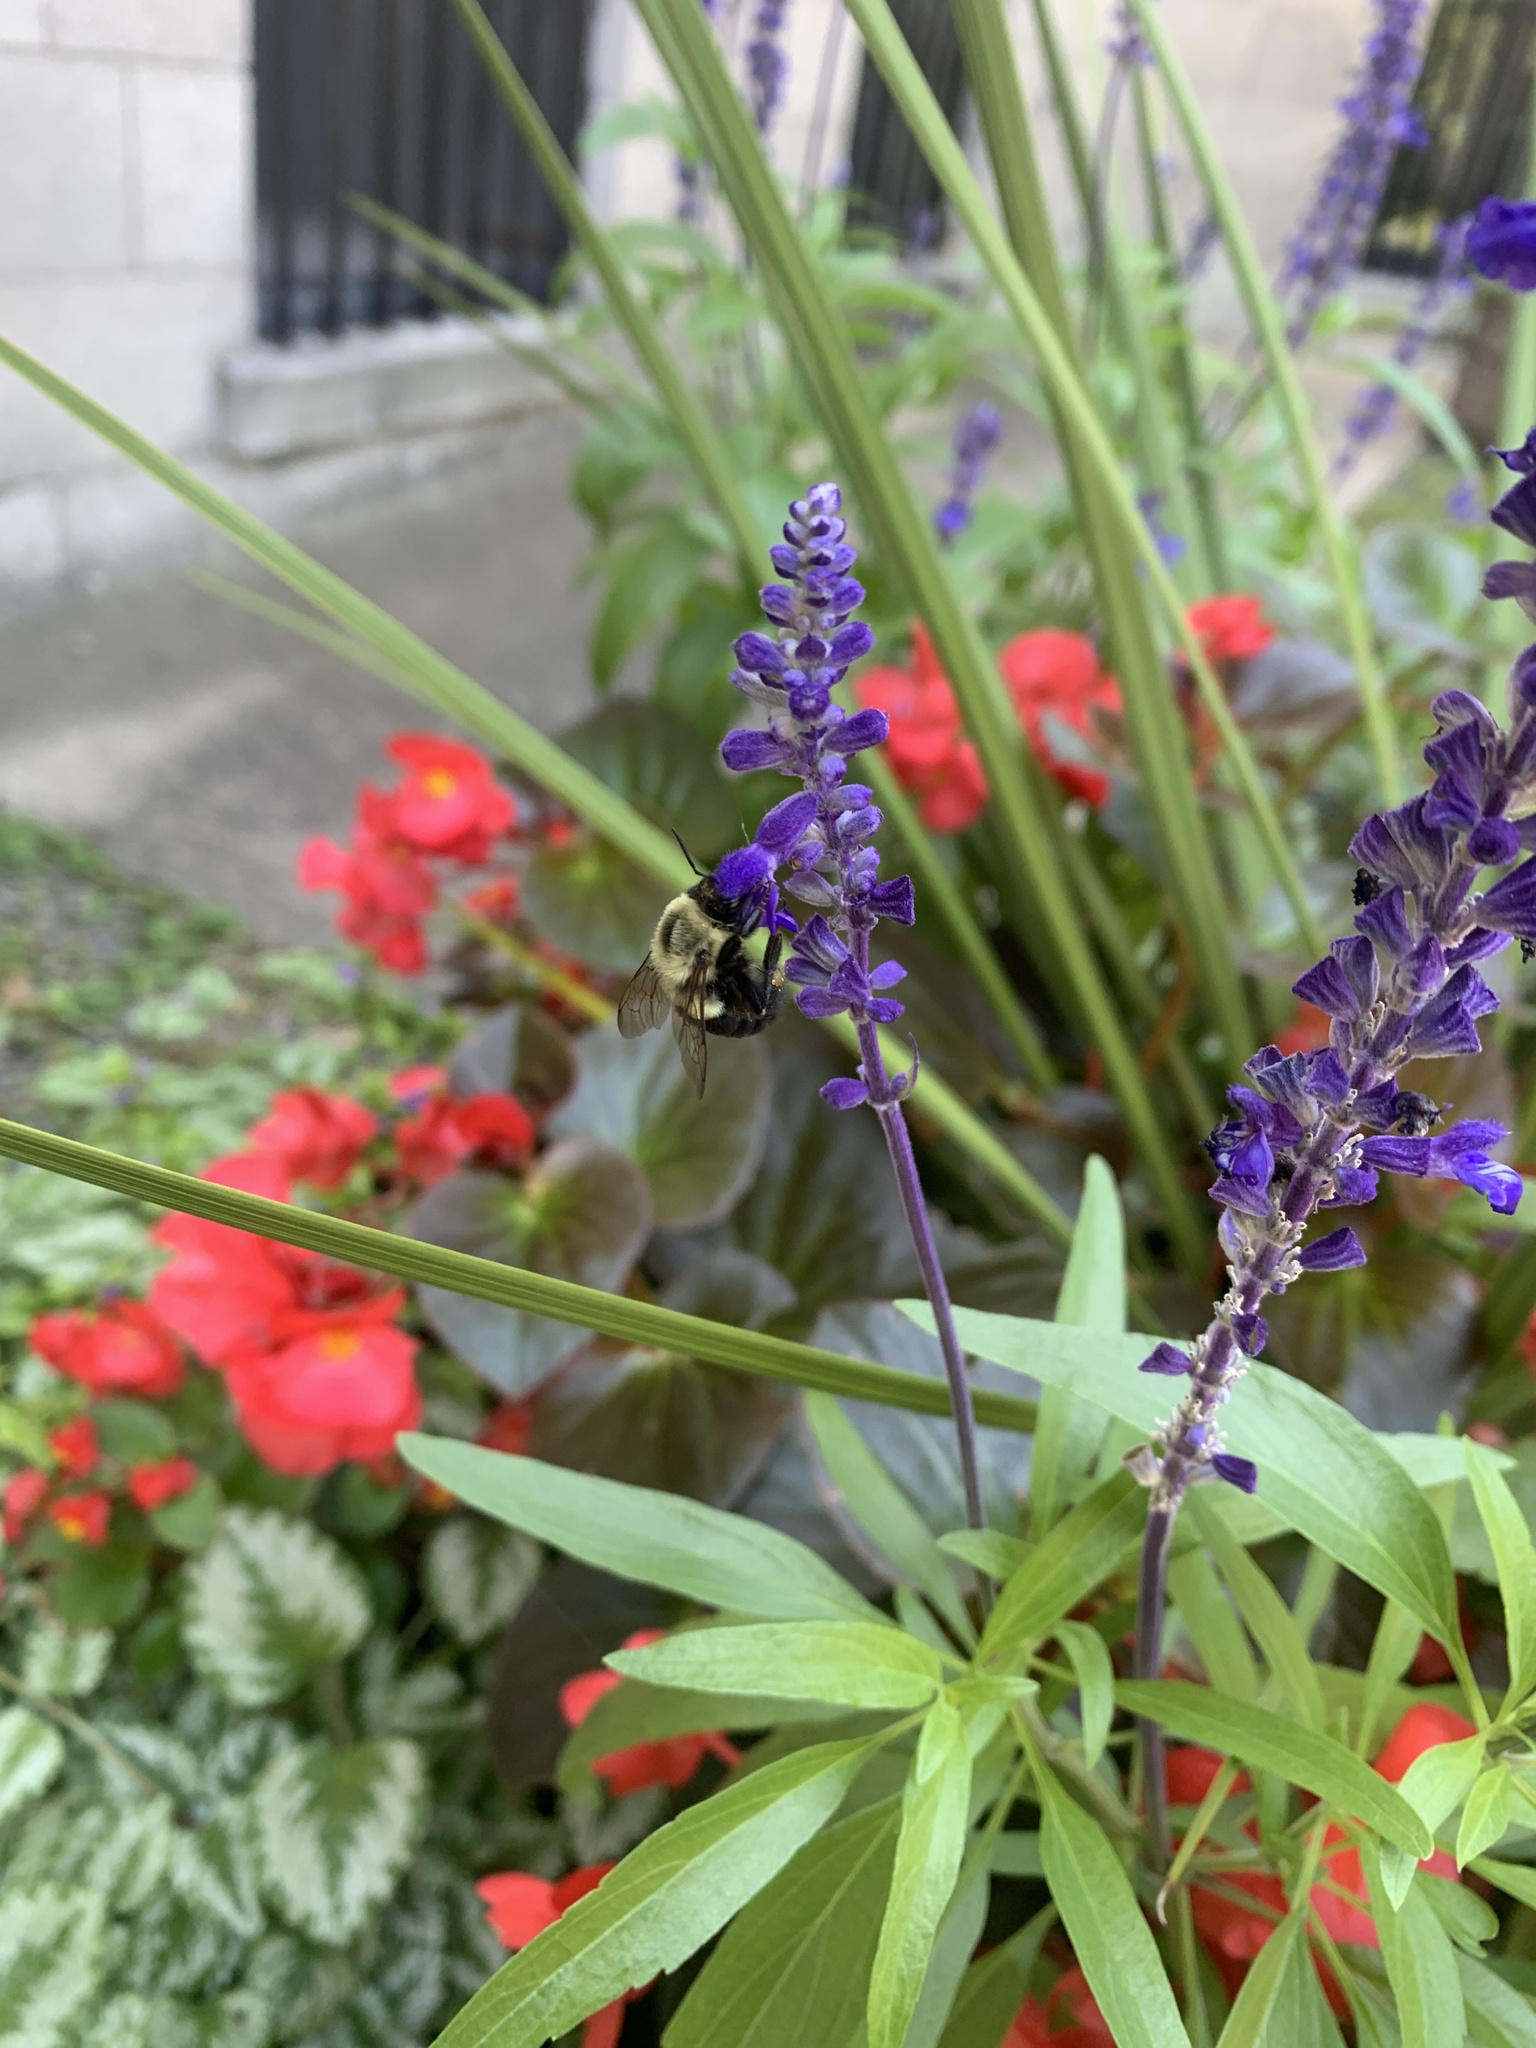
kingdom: Animalia
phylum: Arthropoda
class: Insecta
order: Hymenoptera
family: Apidae
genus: Bombus
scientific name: Bombus impatiens
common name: Common eastern bumble bee
